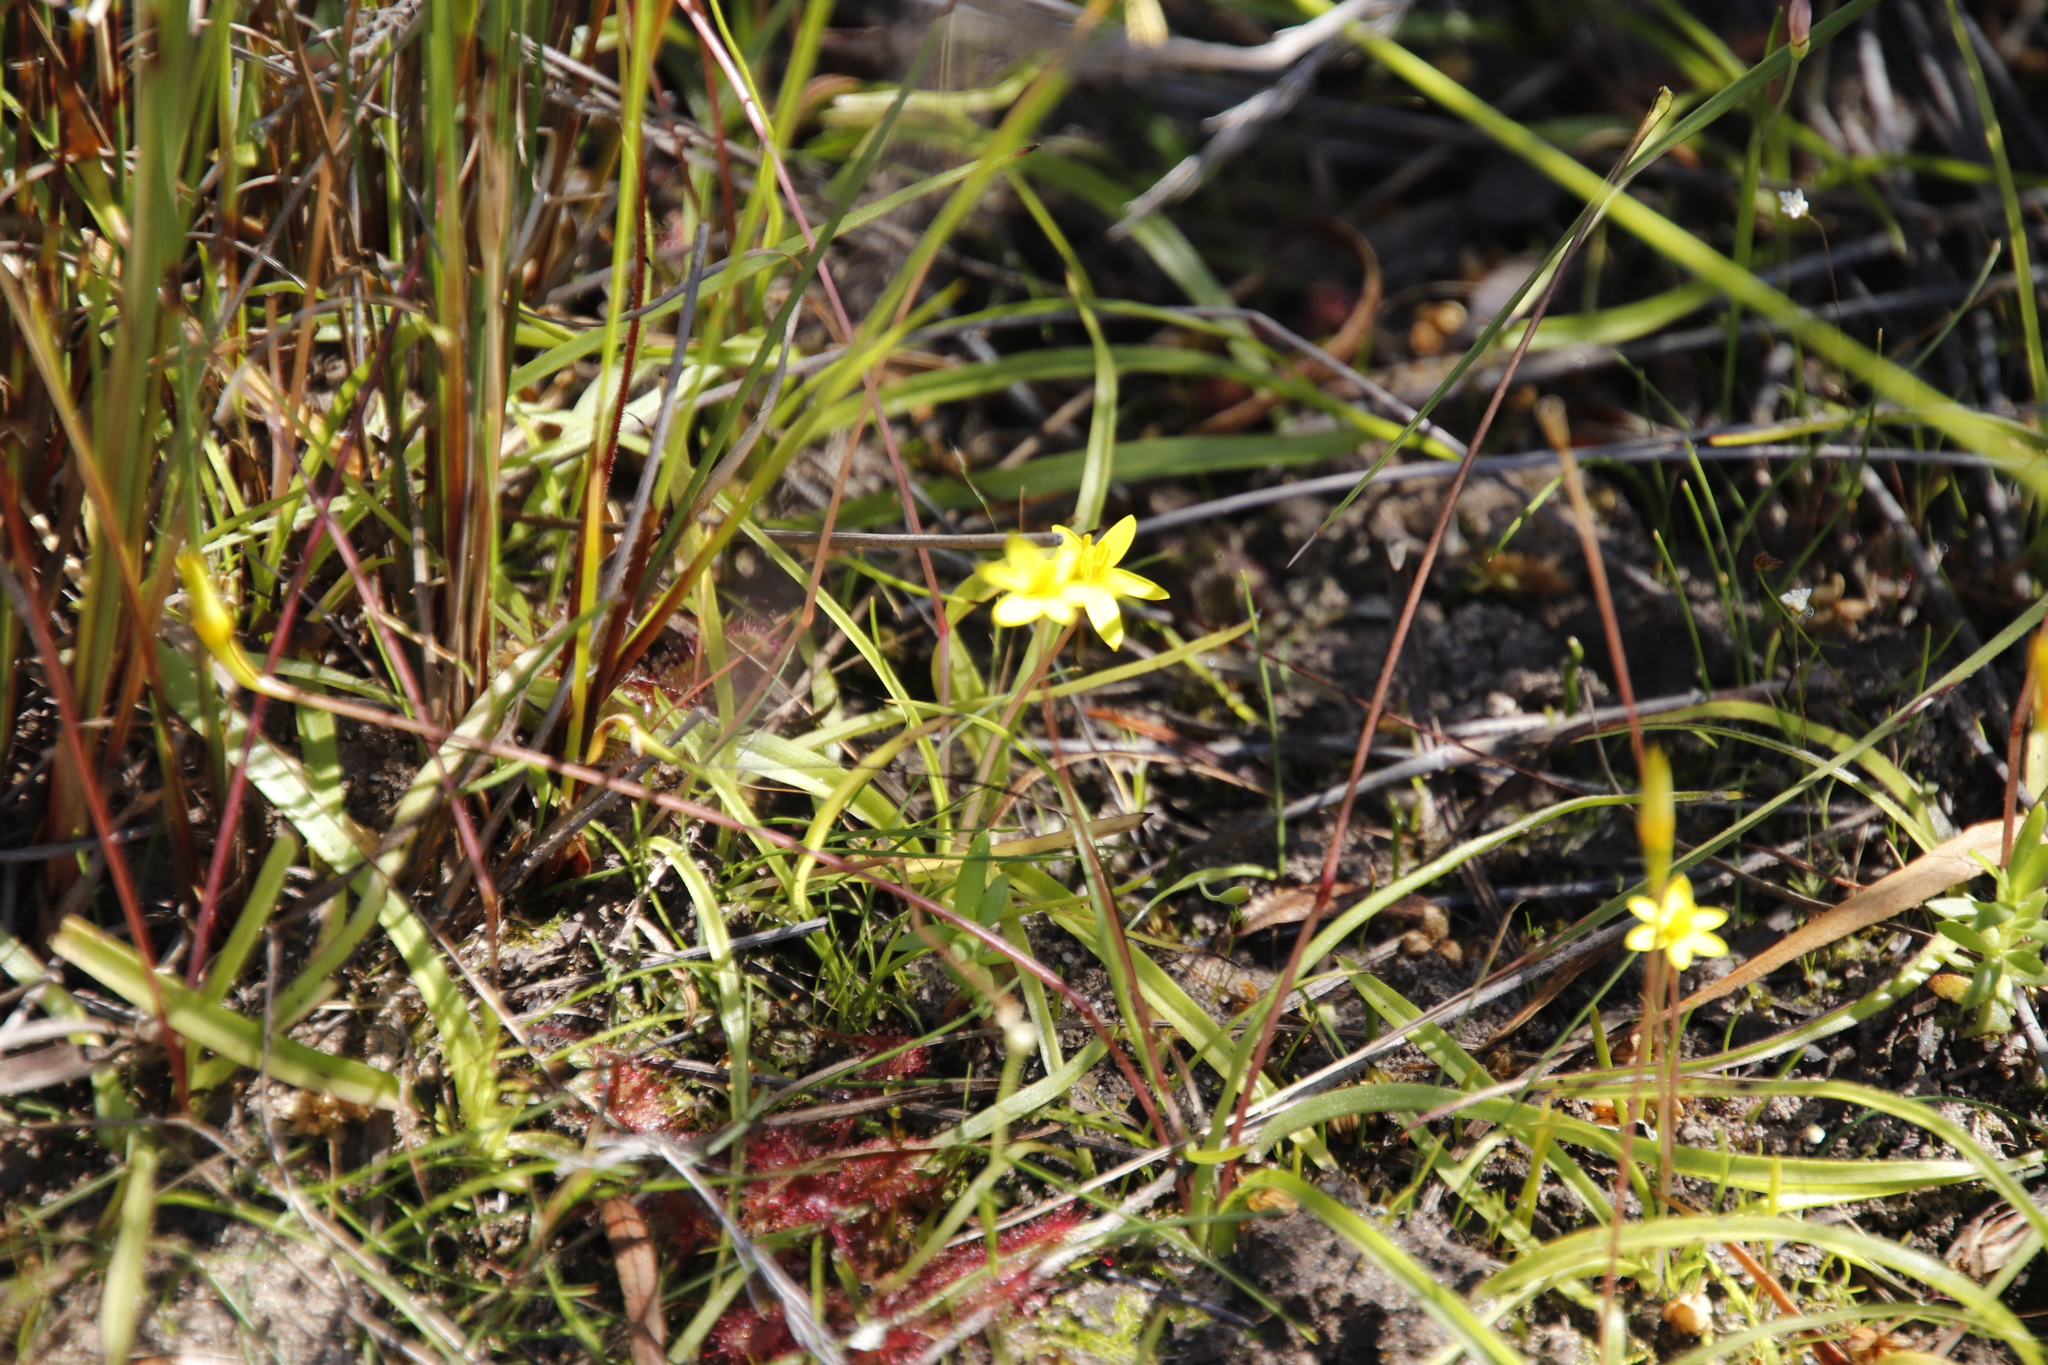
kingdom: Plantae
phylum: Tracheophyta
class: Liliopsida
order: Asparagales
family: Hypoxidaceae
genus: Pauridia
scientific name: Pauridia gracilipes
